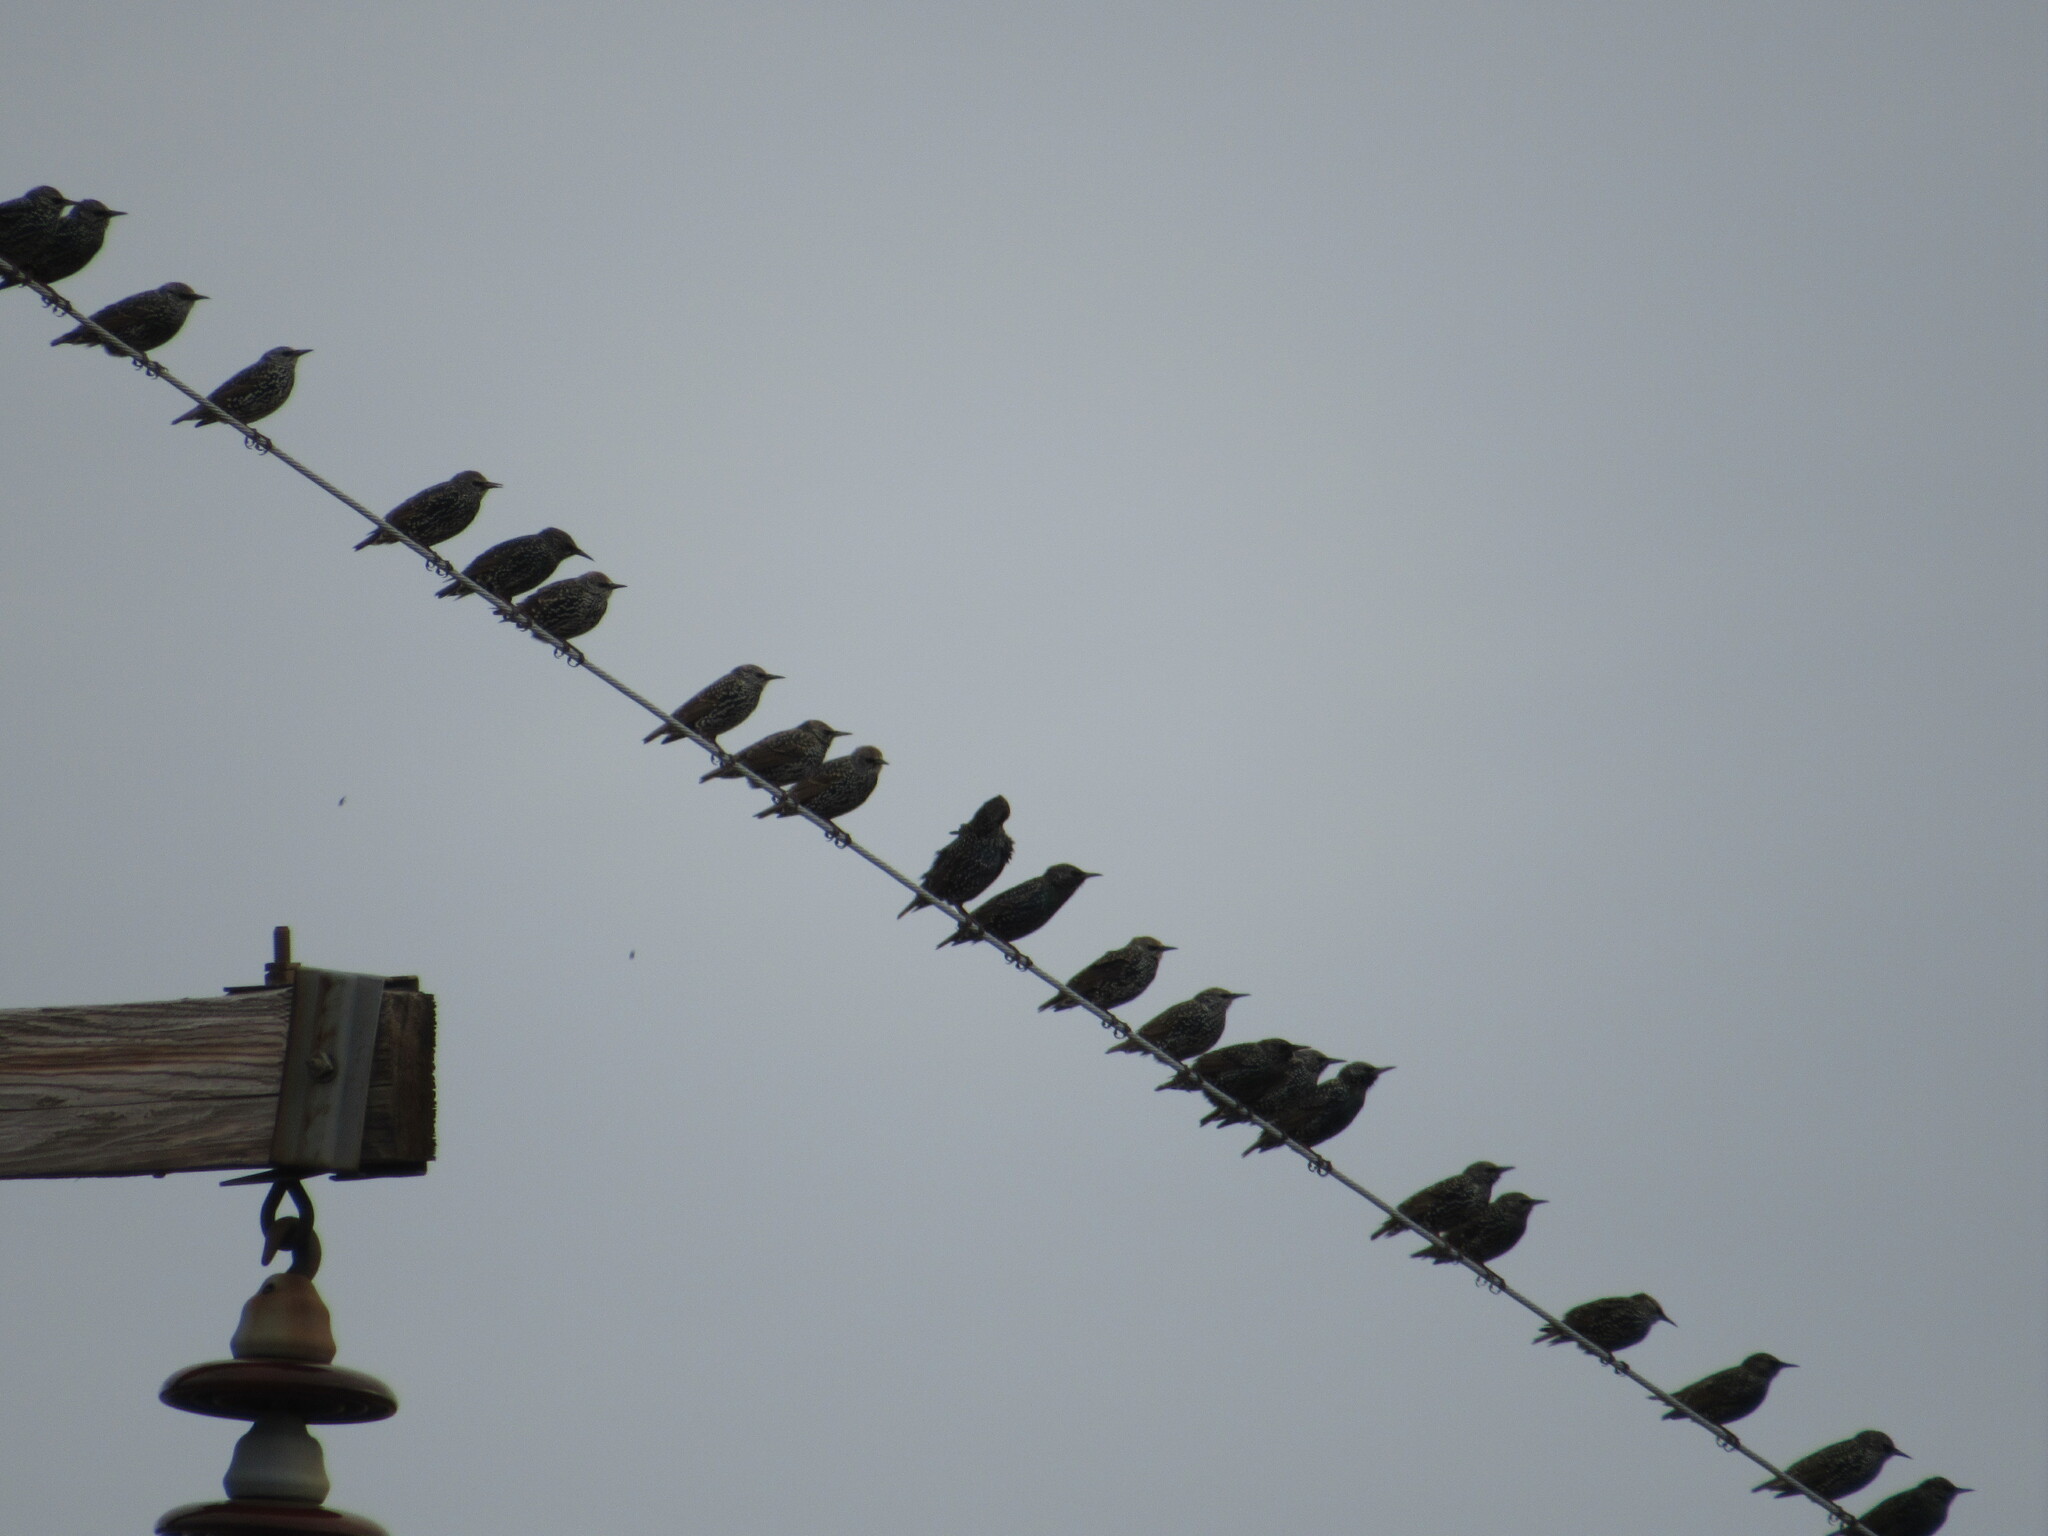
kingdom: Animalia
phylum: Chordata
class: Aves
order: Passeriformes
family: Sturnidae
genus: Sturnus
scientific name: Sturnus vulgaris
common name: Common starling
